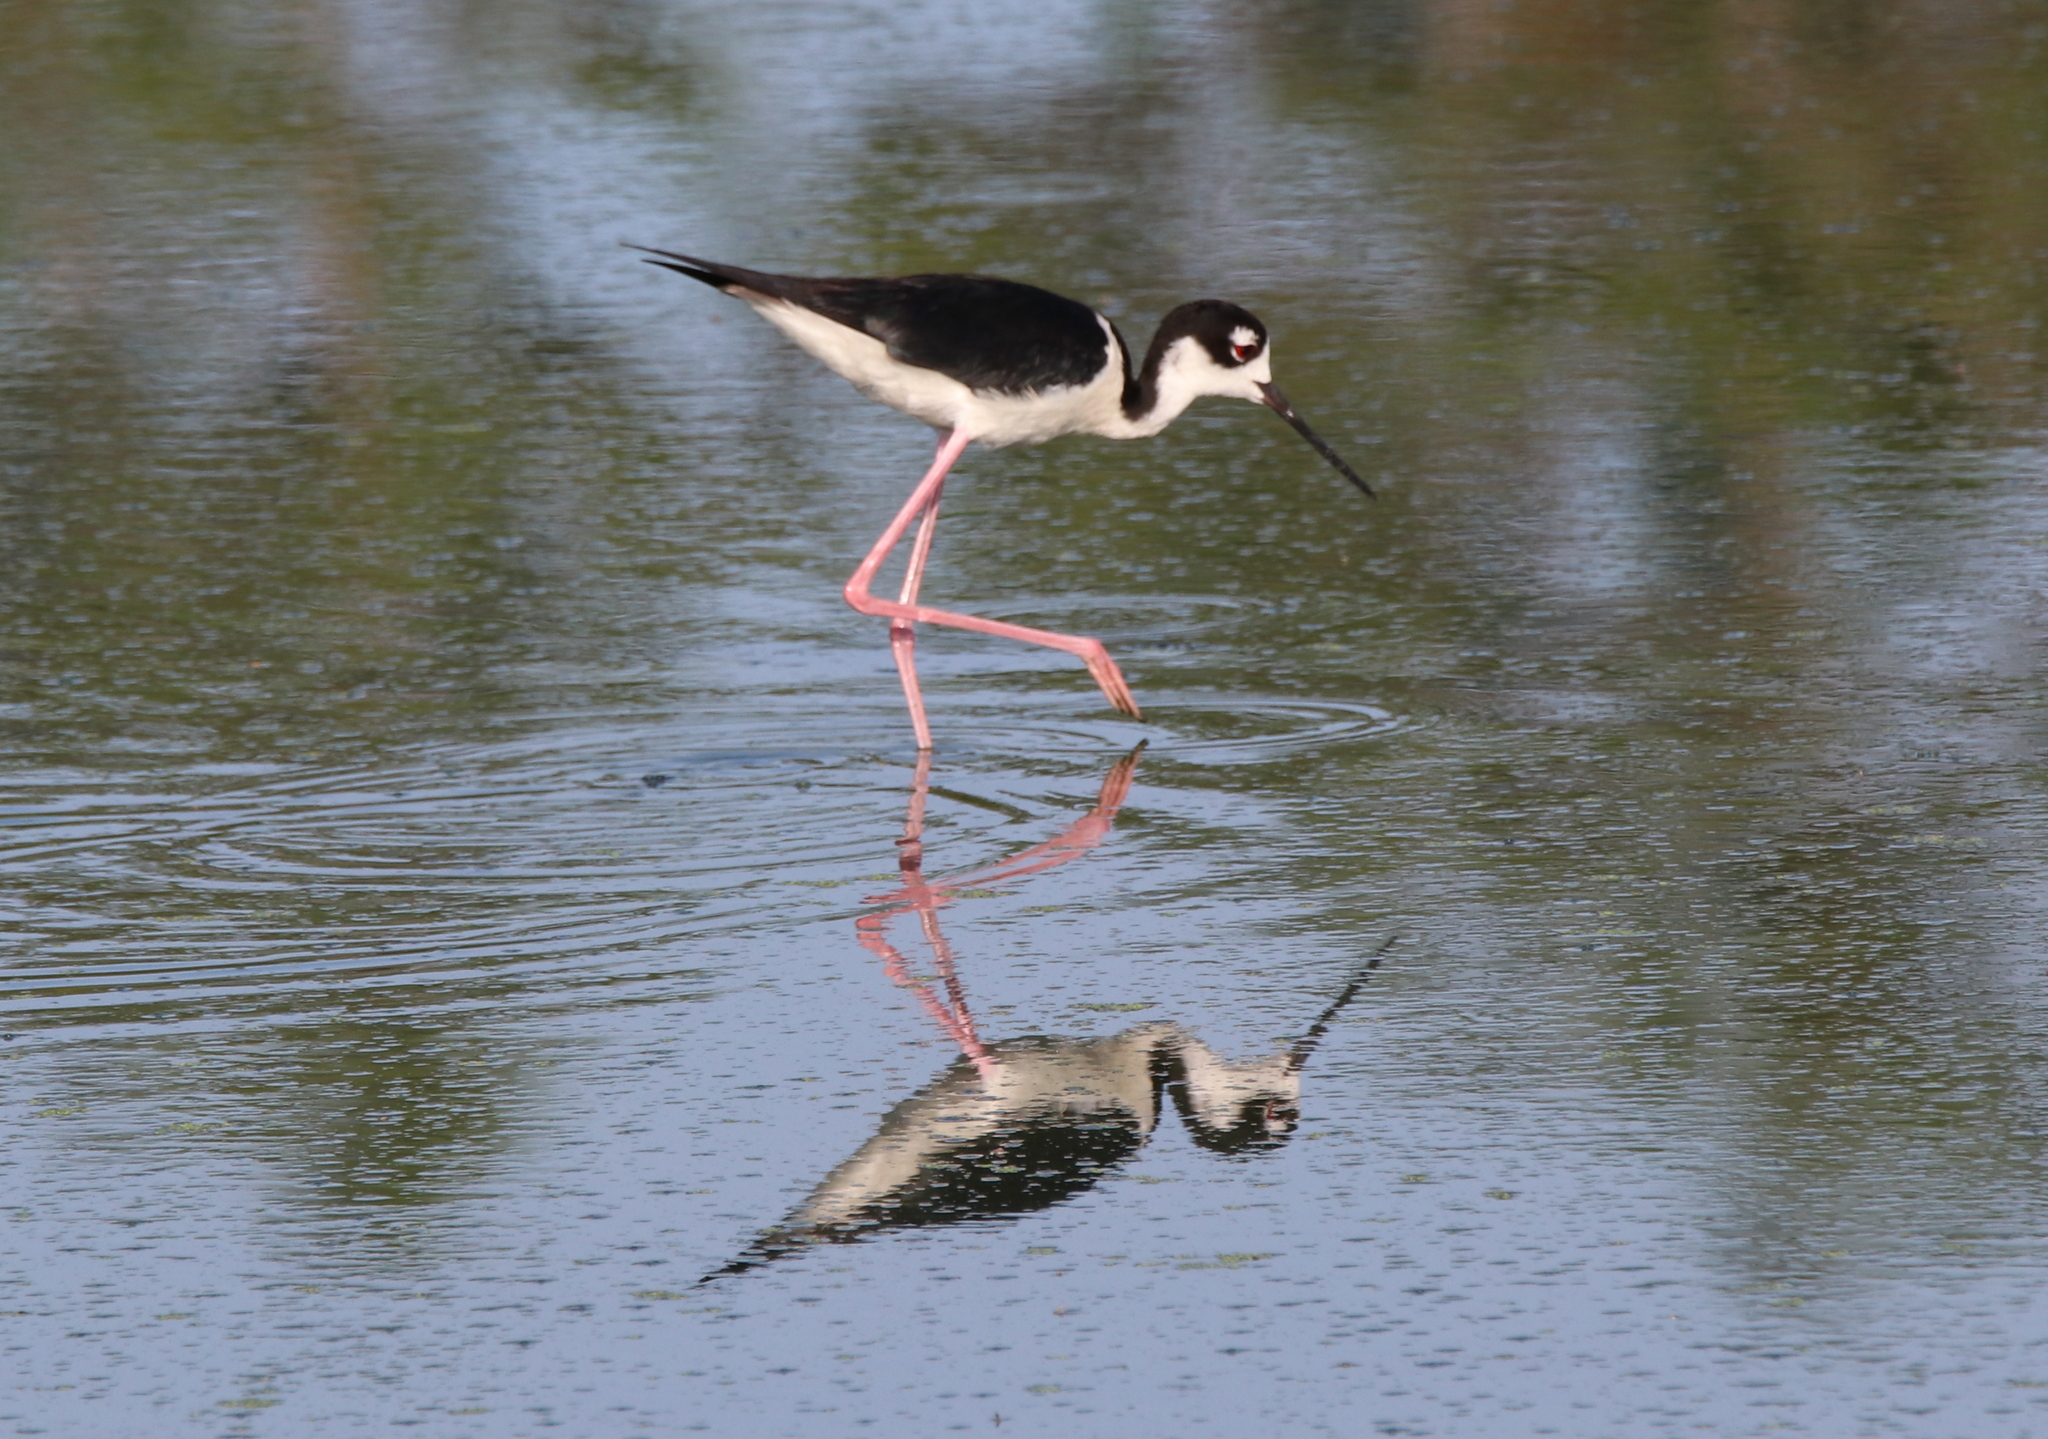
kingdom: Animalia
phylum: Chordata
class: Aves
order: Charadriiformes
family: Recurvirostridae
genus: Himantopus
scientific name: Himantopus mexicanus
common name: Black-necked stilt
